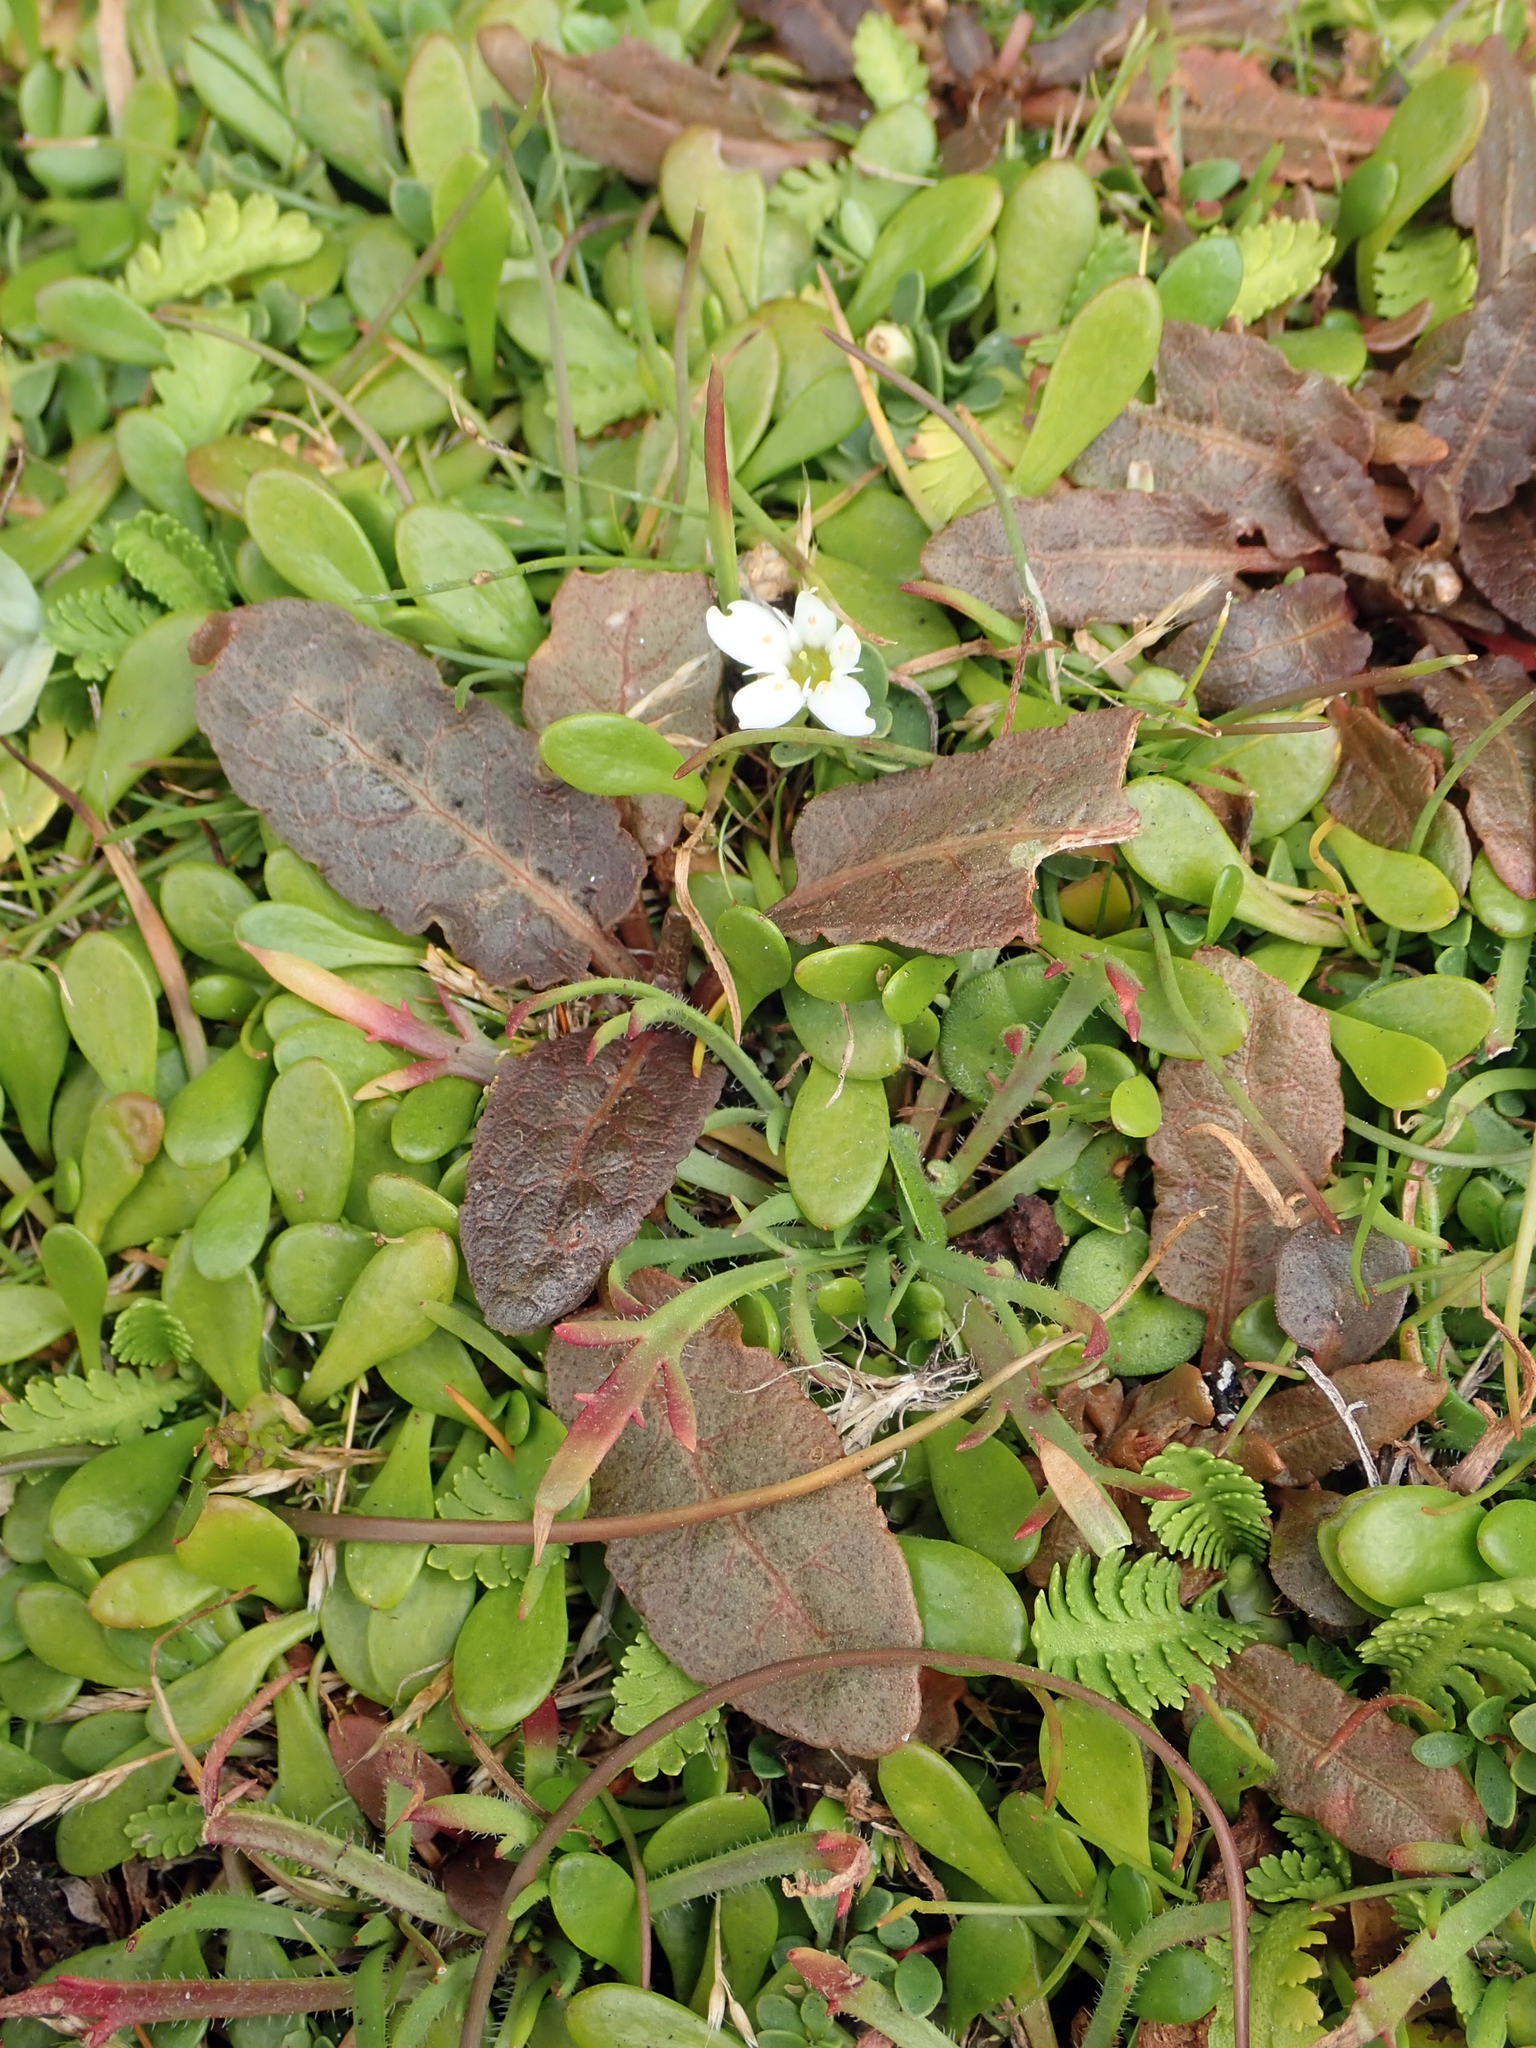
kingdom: Plantae
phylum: Tracheophyta
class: Magnoliopsida
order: Caryophyllales
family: Polygonaceae
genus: Rumex
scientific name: Rumex neglectus
